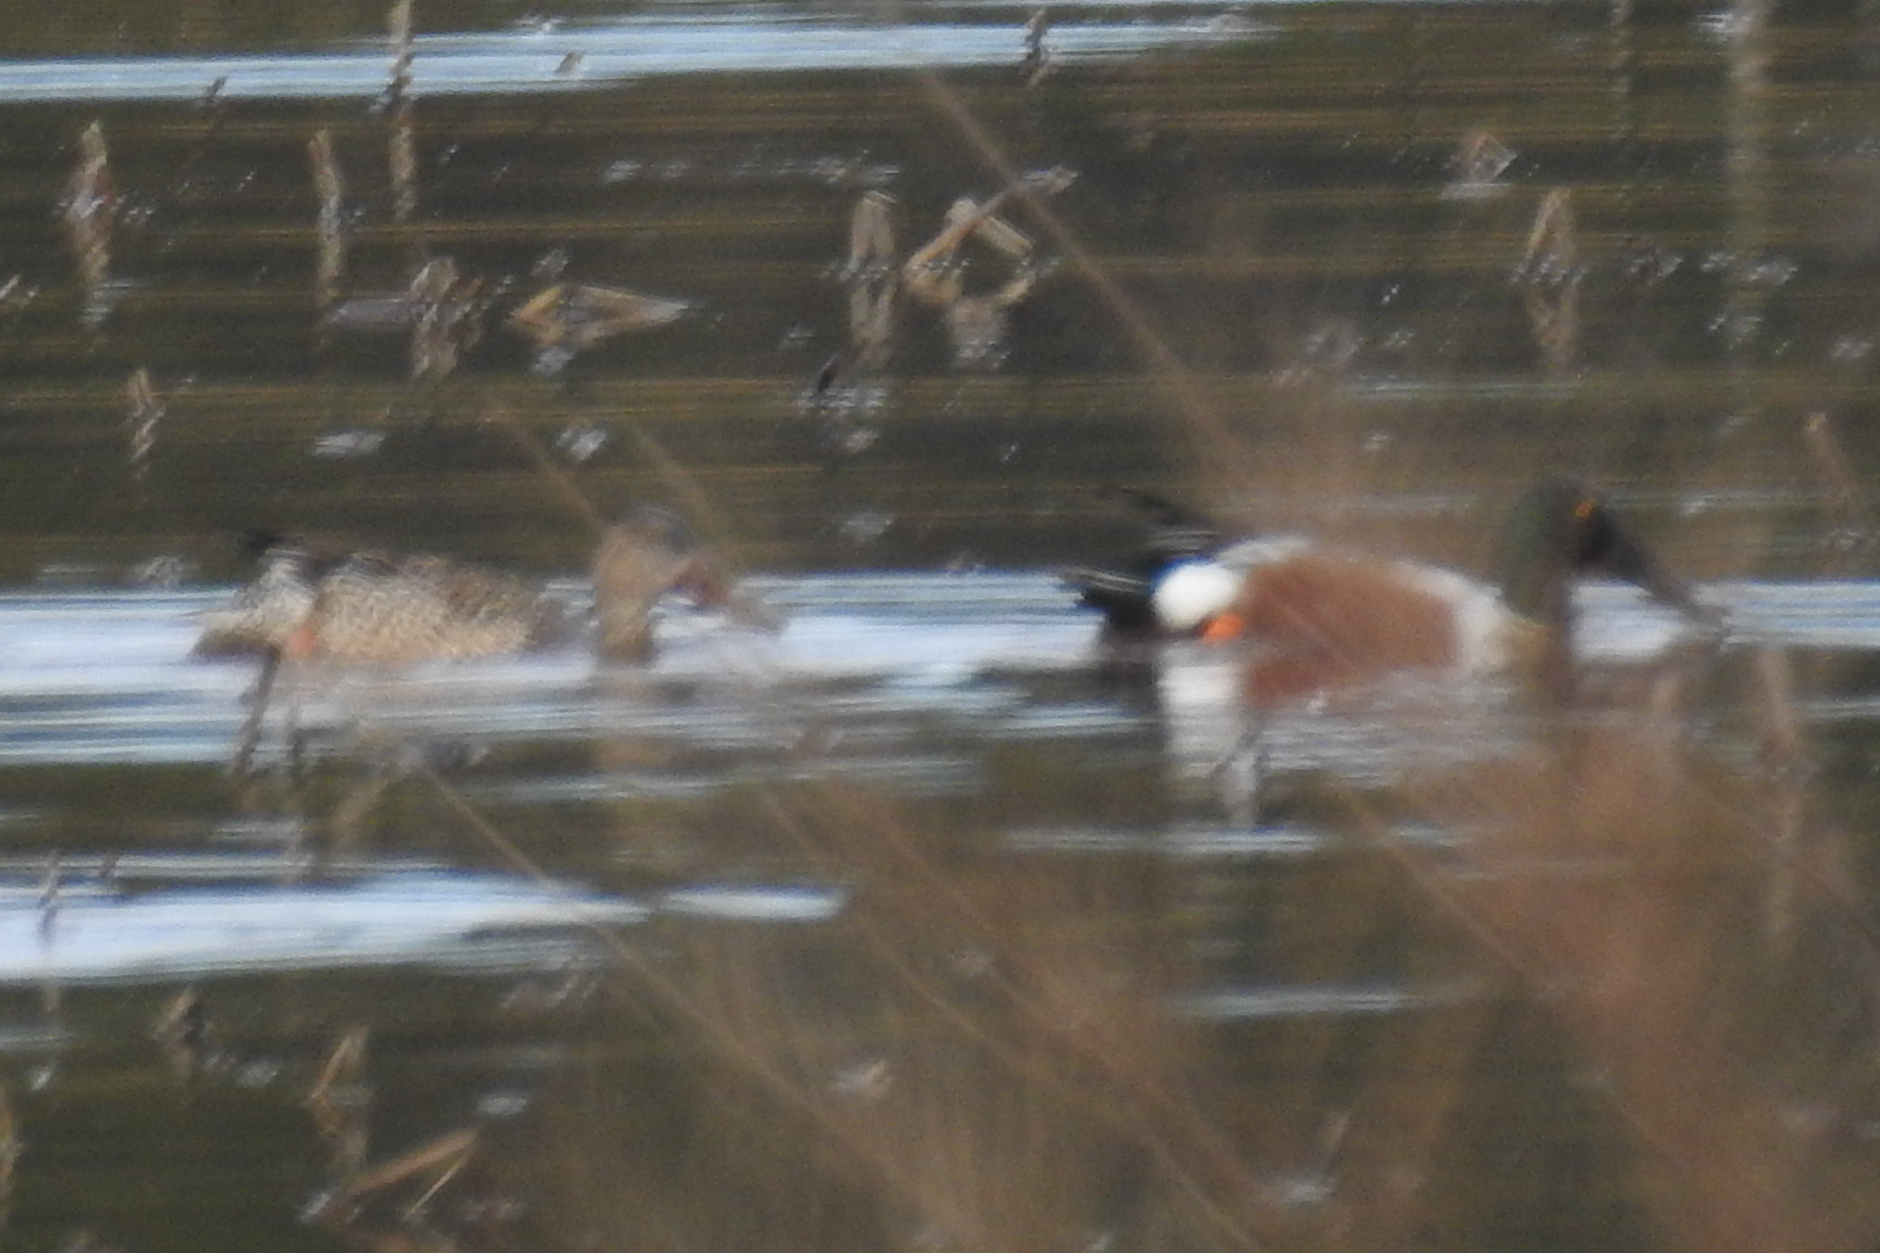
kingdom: Animalia
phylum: Chordata
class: Aves
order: Anseriformes
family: Anatidae
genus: Spatula
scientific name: Spatula clypeata
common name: Northern shoveler
